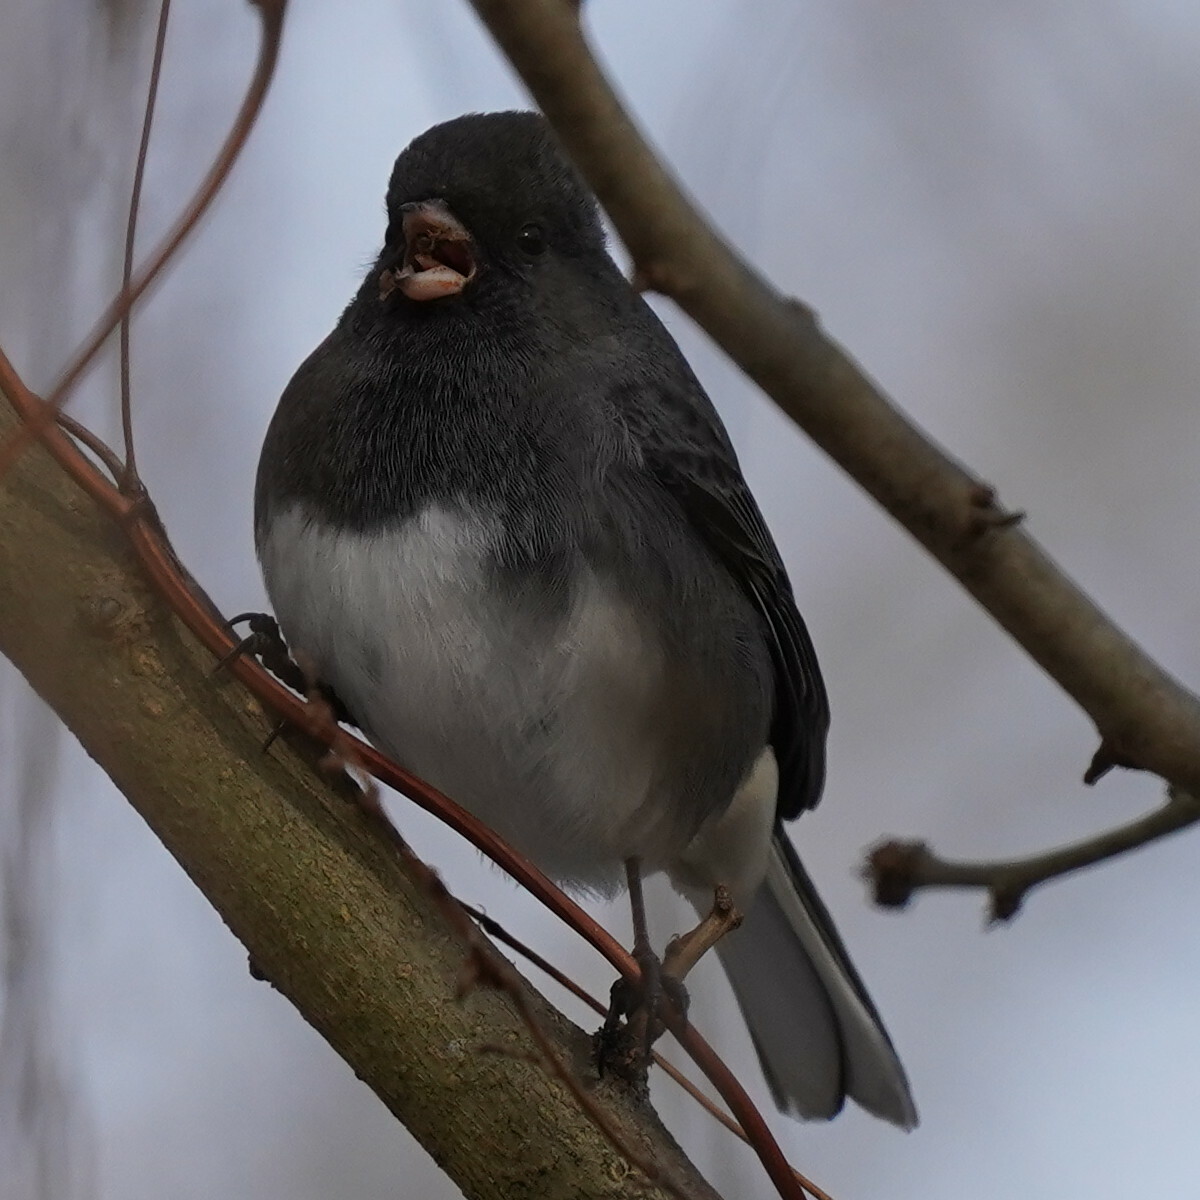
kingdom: Animalia
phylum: Chordata
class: Aves
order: Passeriformes
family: Passerellidae
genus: Junco
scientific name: Junco hyemalis
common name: Dark-eyed junco
